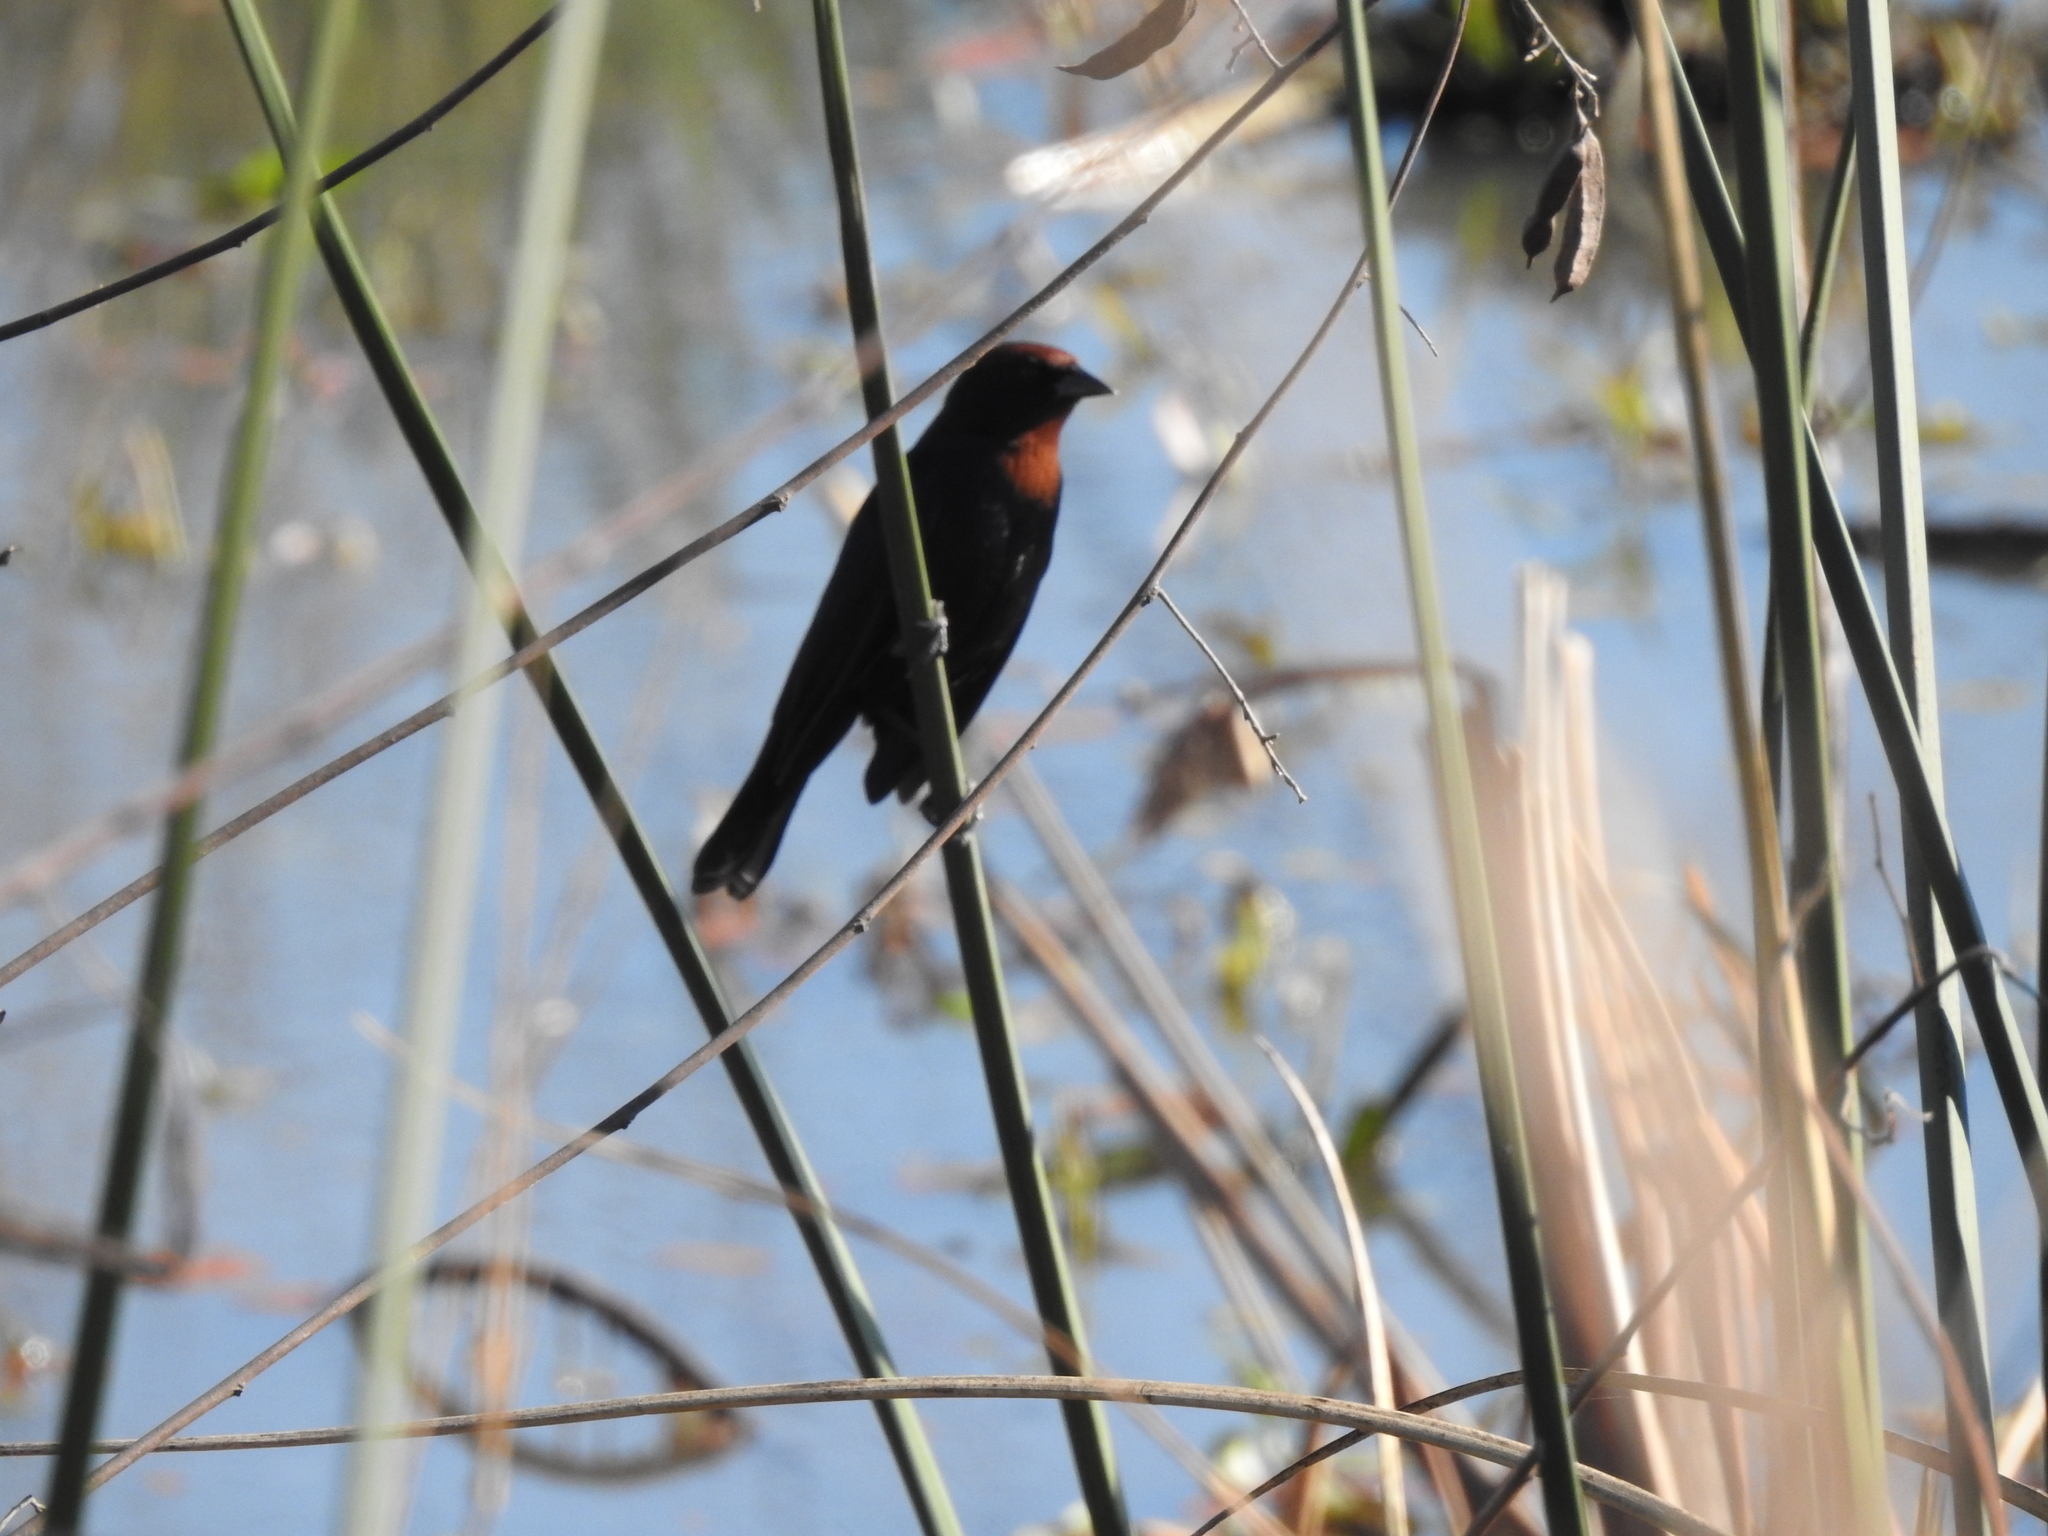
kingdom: Animalia
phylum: Chordata
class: Aves
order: Passeriformes
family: Icteridae
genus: Chrysomus
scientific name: Chrysomus ruficapillus
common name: Chestnut-capped blackbird
